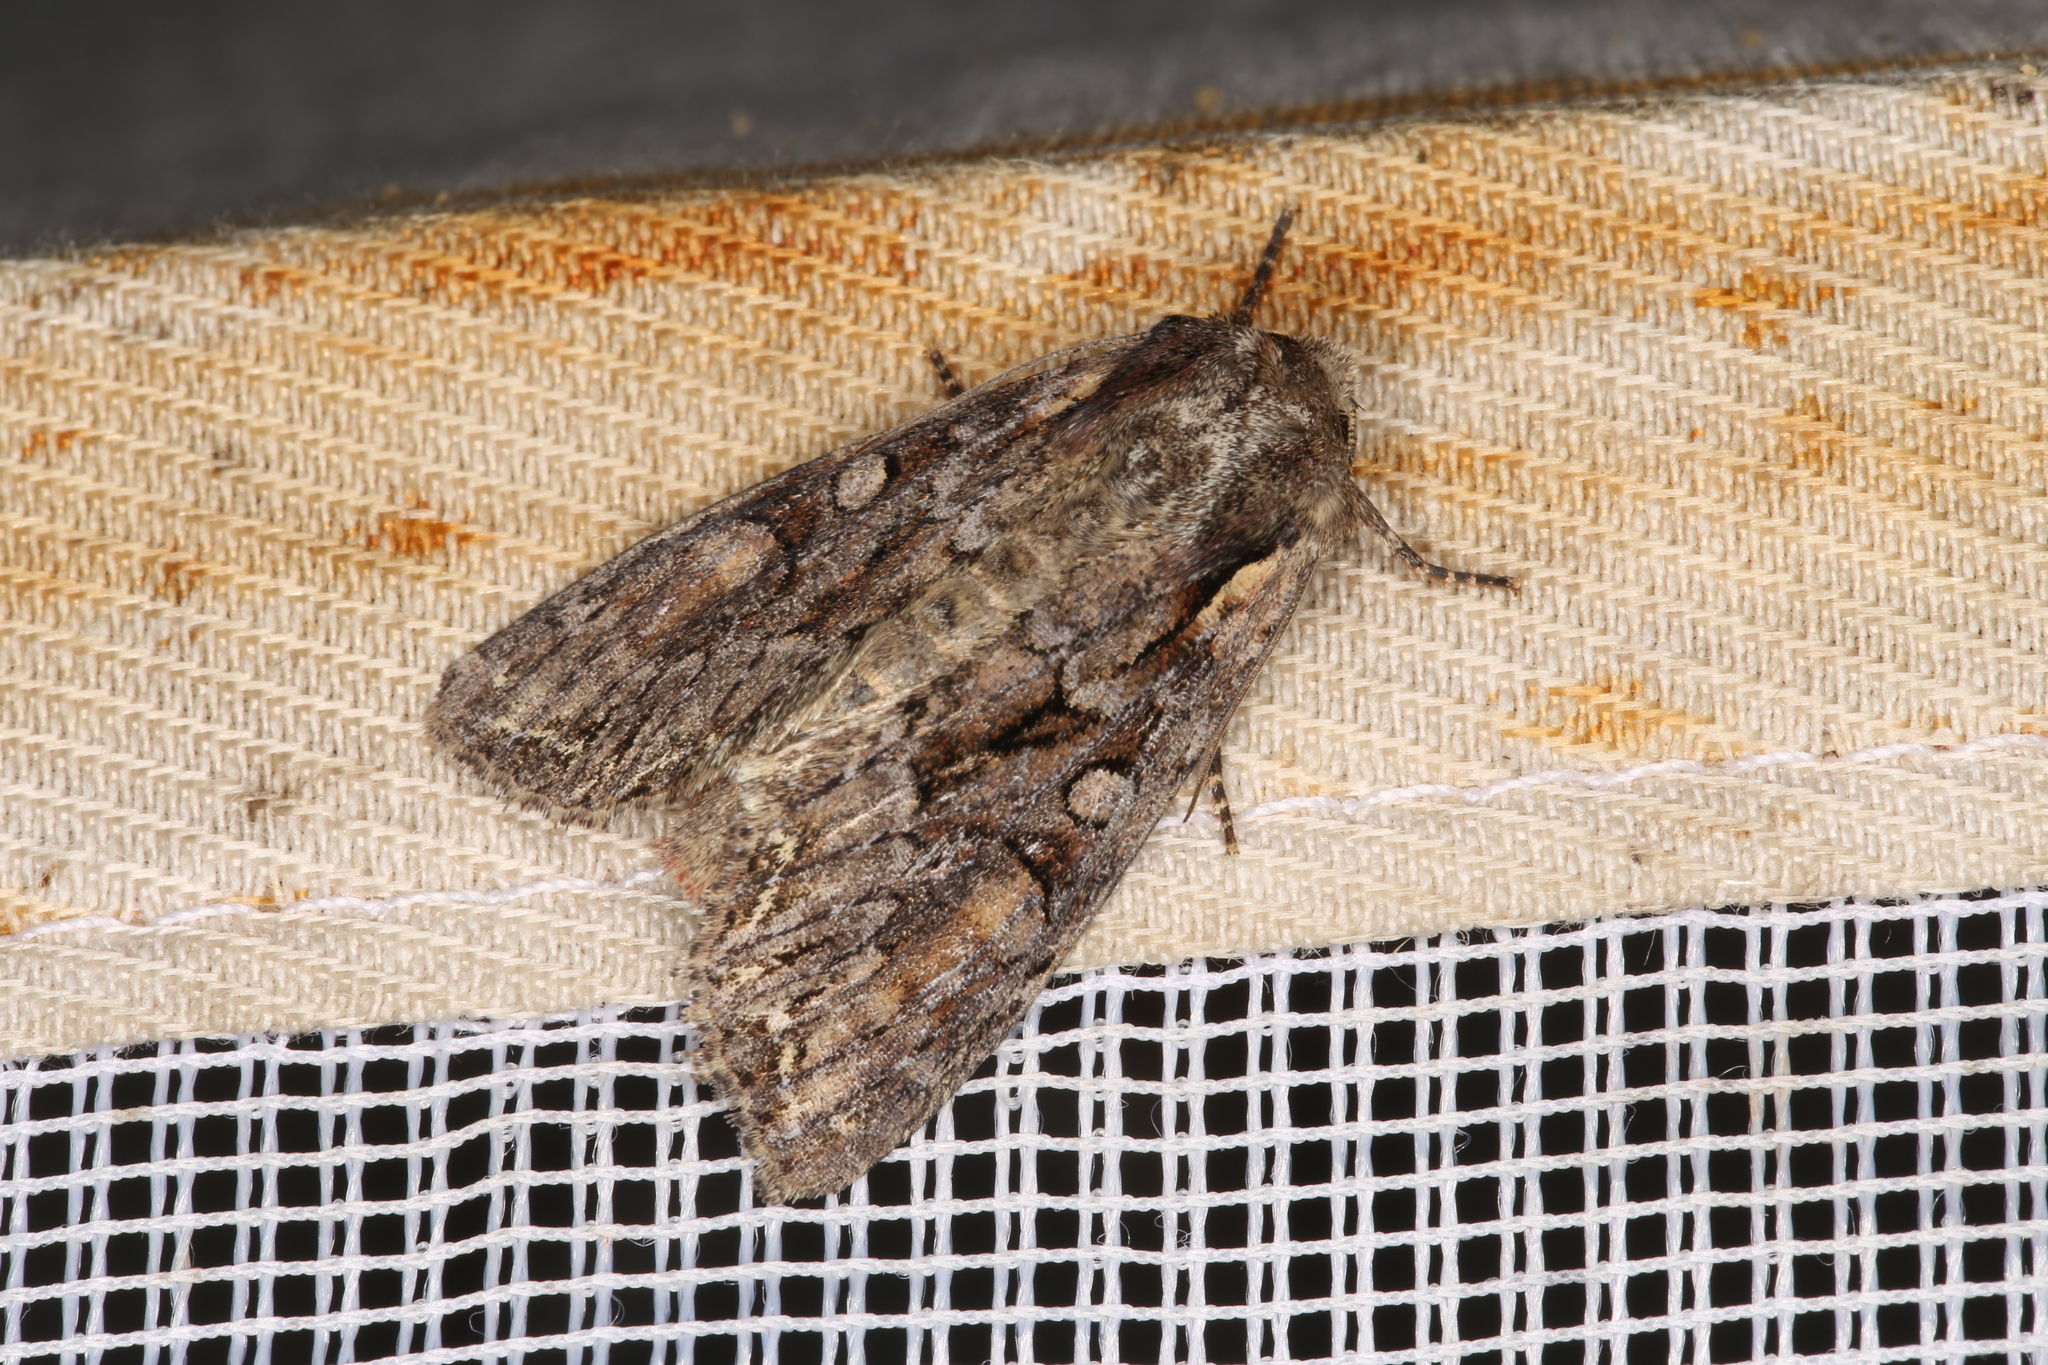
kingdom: Animalia
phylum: Arthropoda
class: Insecta
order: Lepidoptera
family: Noctuidae
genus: Lacanobia
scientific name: Lacanobia thalassina
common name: Pale-shouldered brocade
